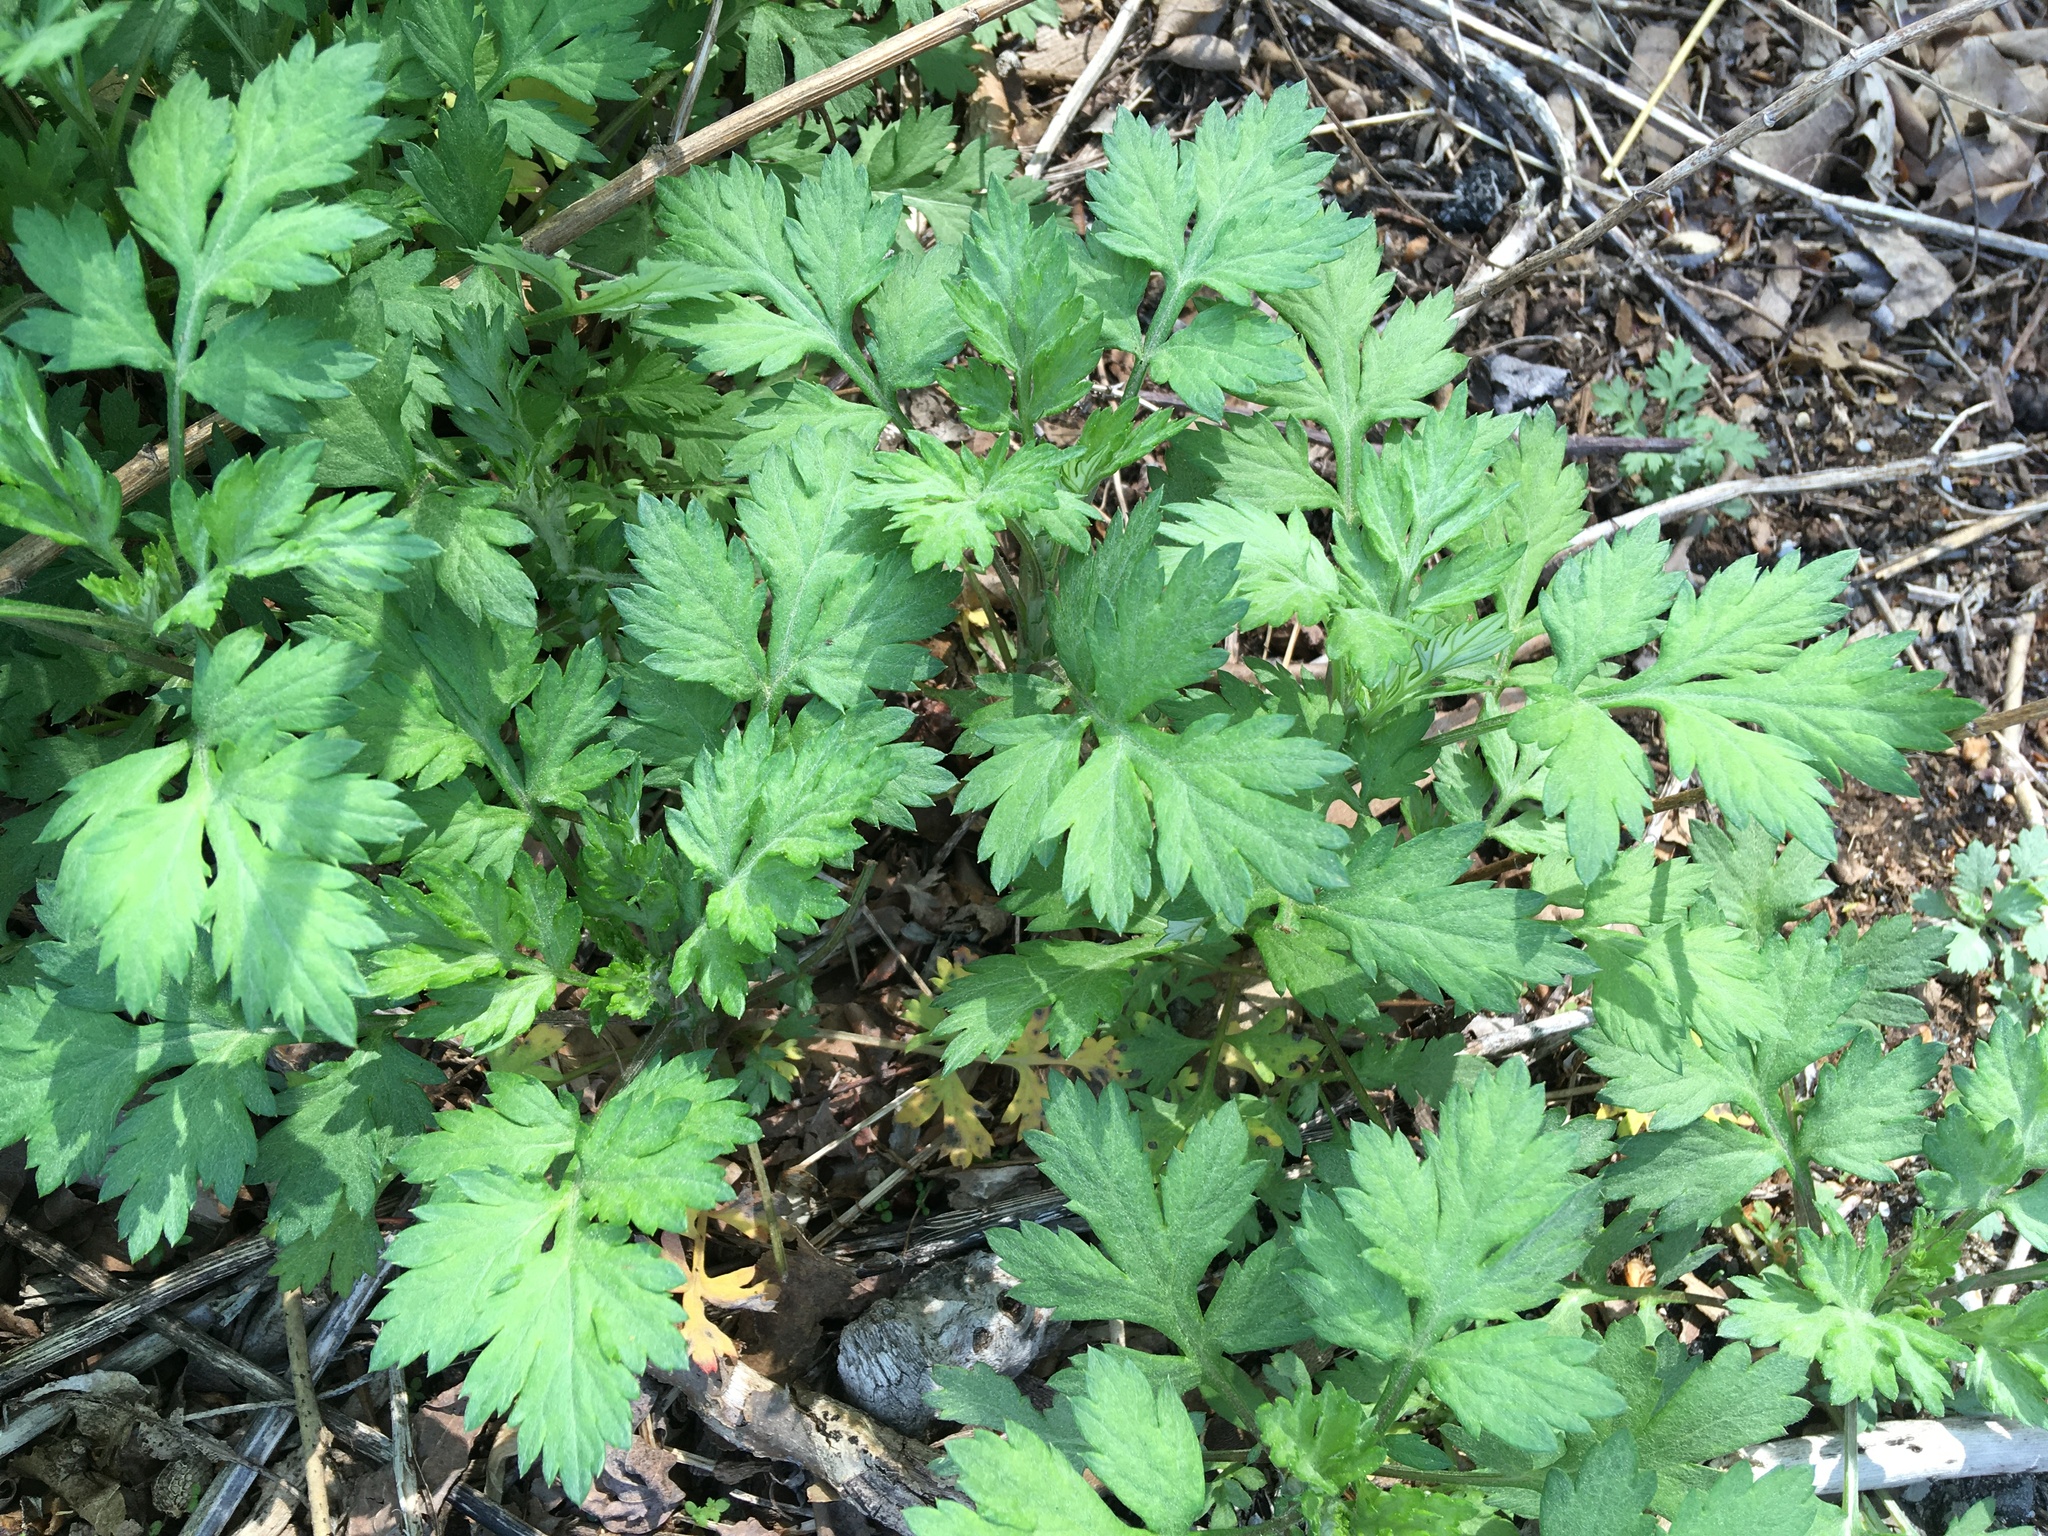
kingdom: Plantae
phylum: Tracheophyta
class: Magnoliopsida
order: Asterales
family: Asteraceae
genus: Artemisia
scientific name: Artemisia vulgaris
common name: Mugwort
